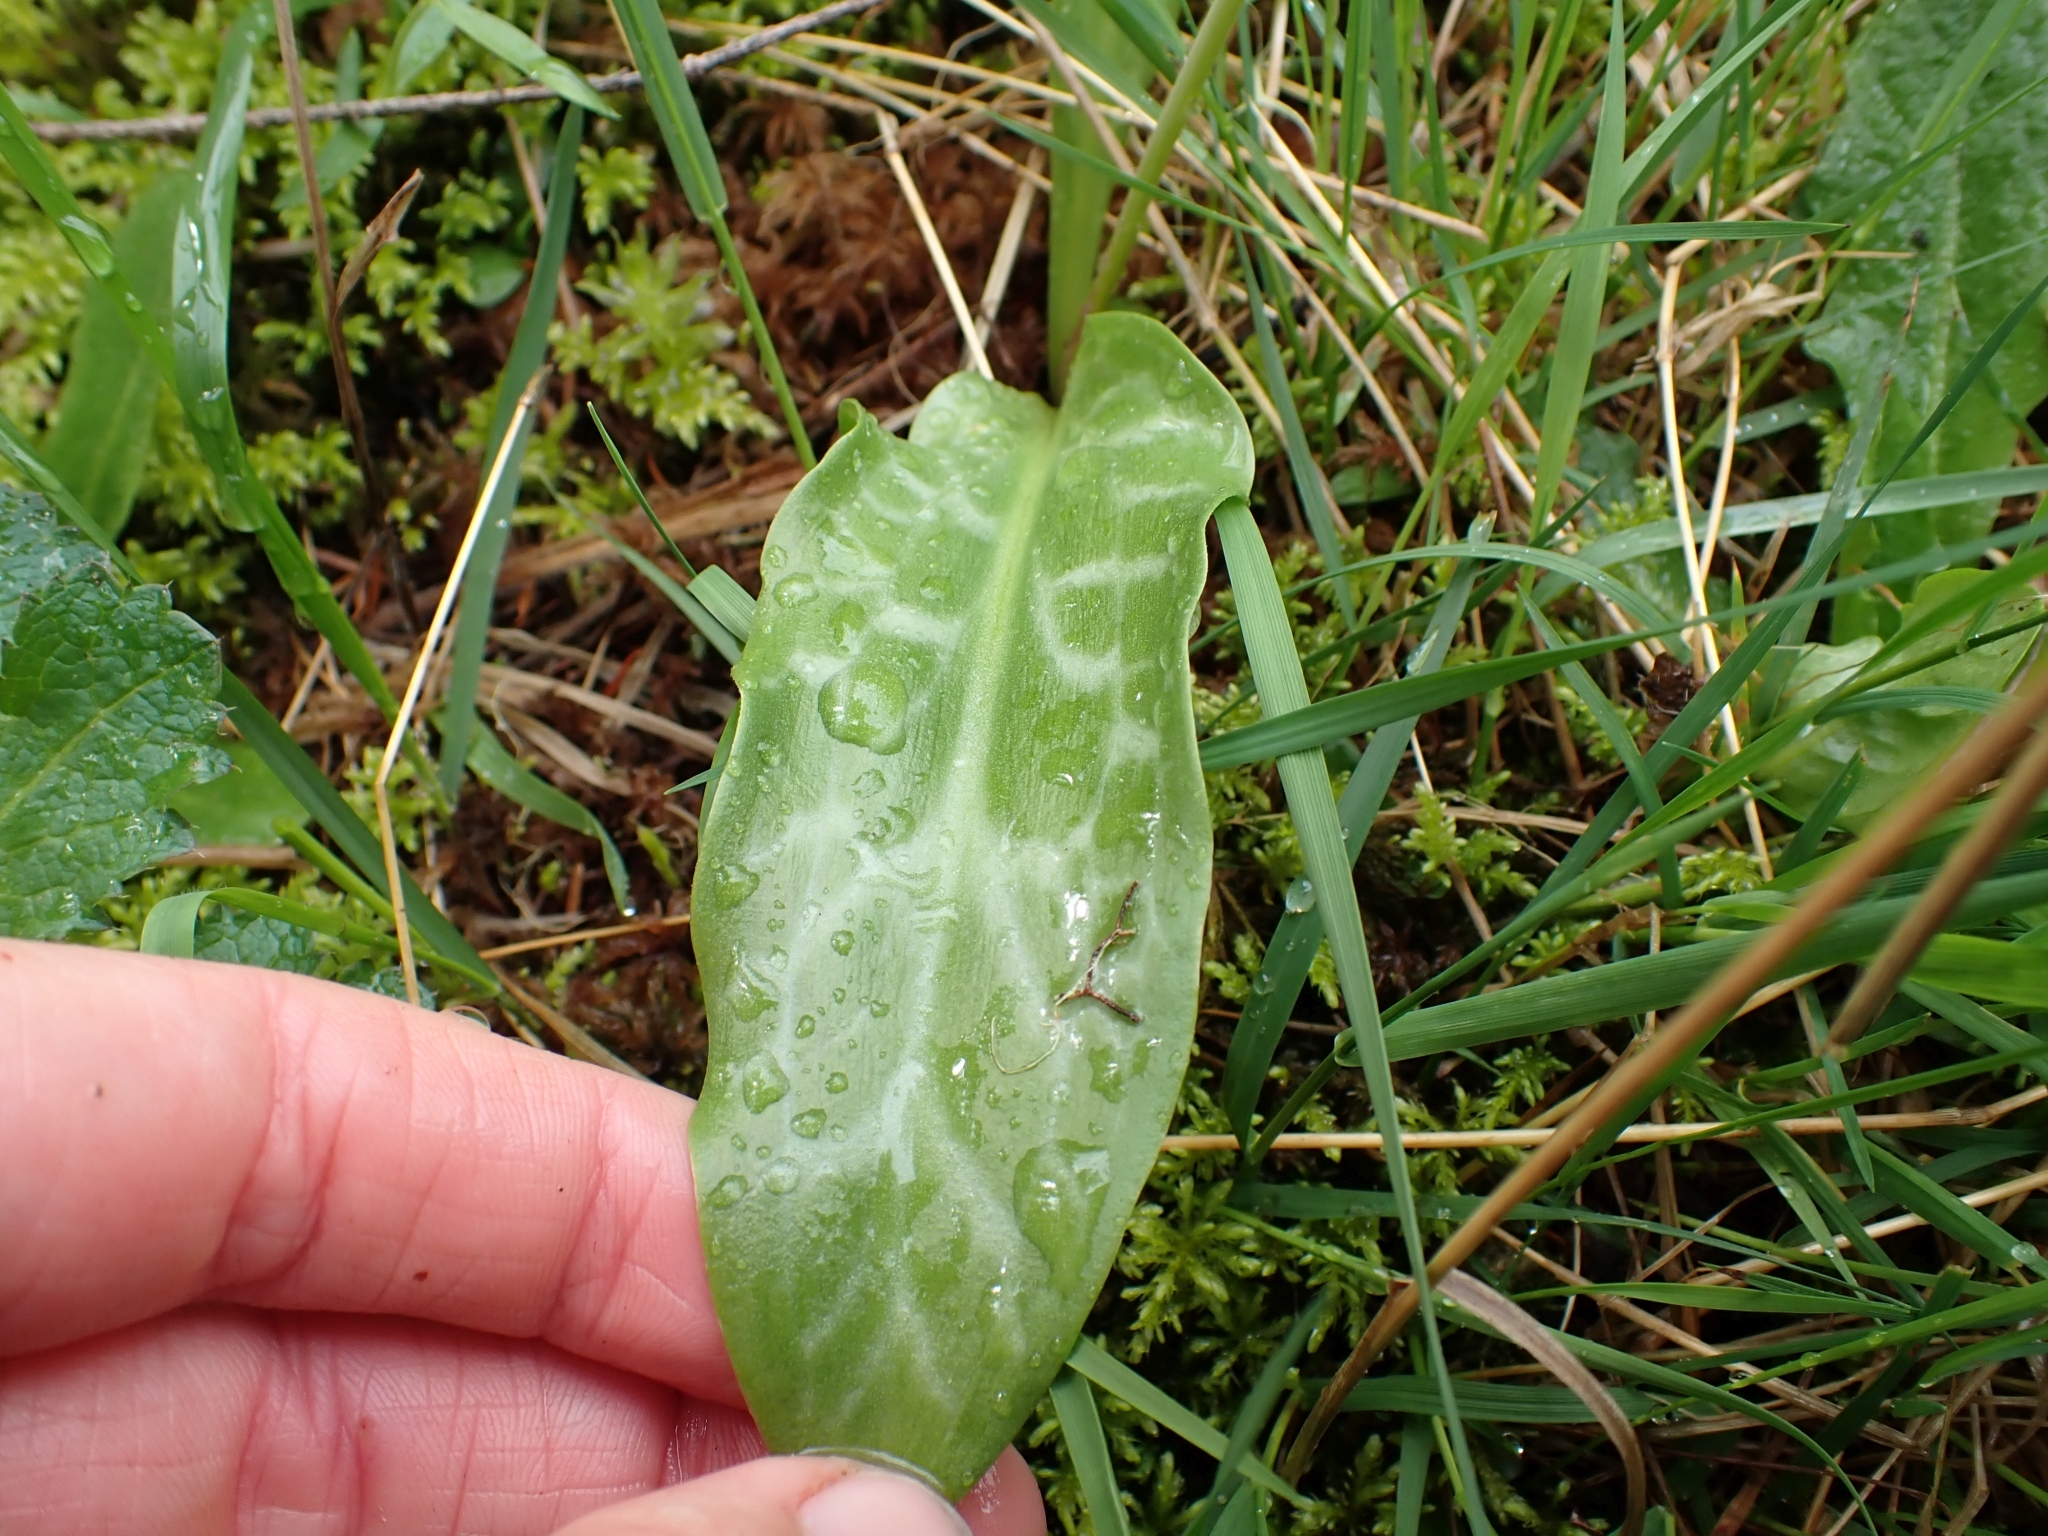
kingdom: Plantae
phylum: Tracheophyta
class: Liliopsida
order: Liliales
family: Liliaceae
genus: Erythronium
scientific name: Erythronium oregonum
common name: Giant adder's-tongue
